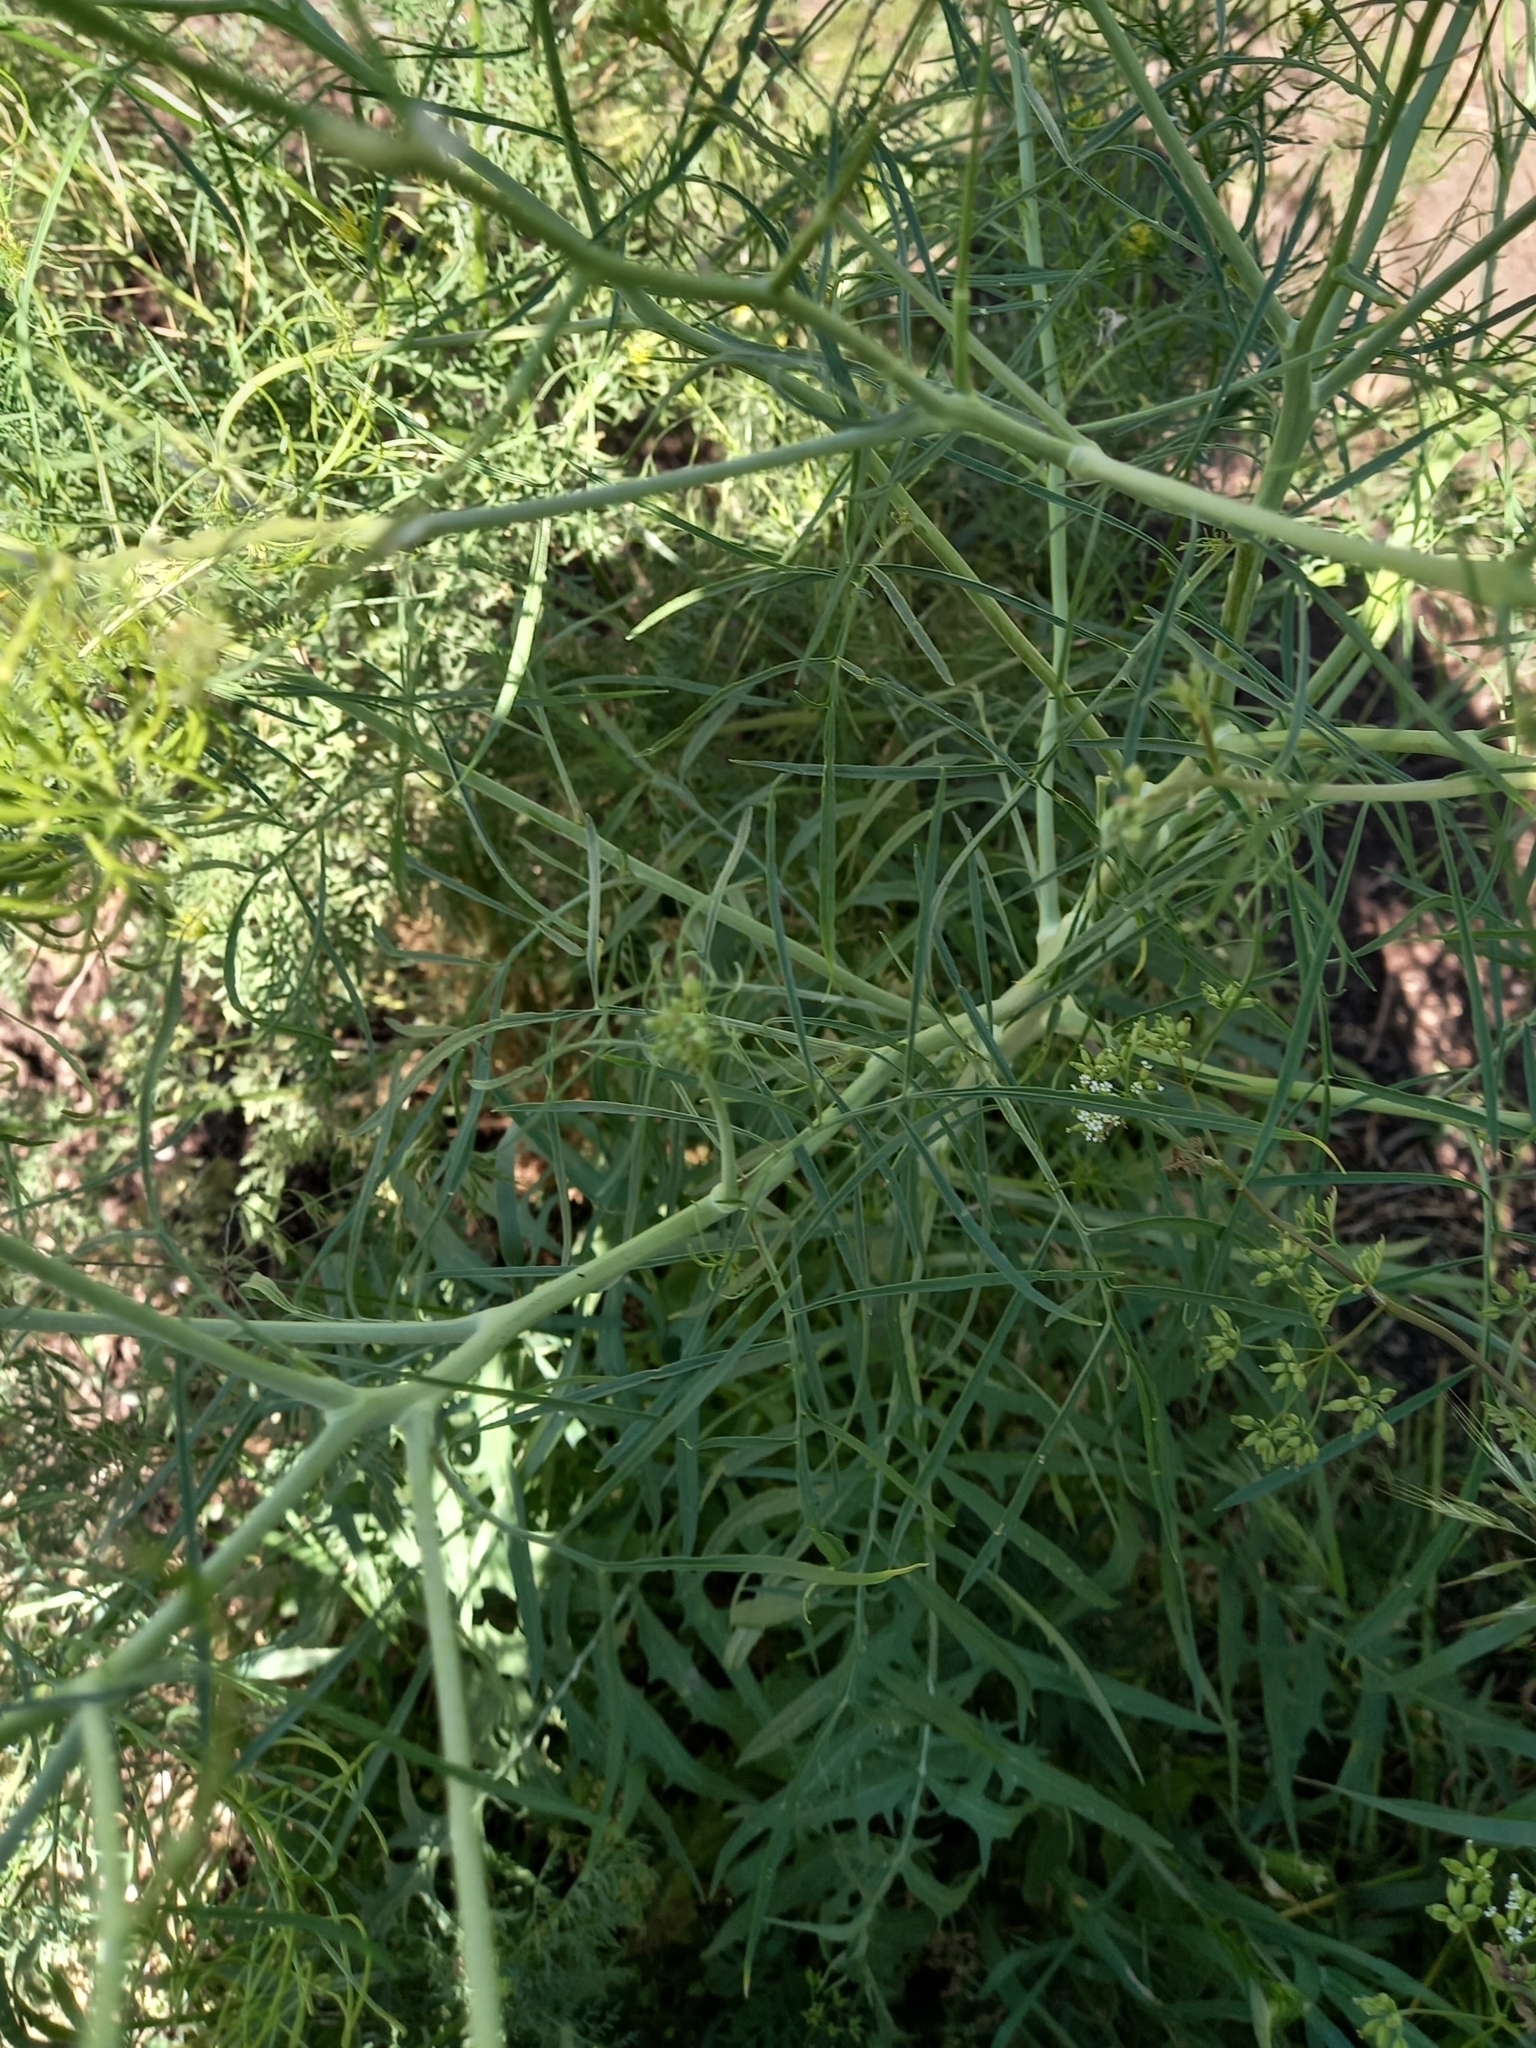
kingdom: Plantae
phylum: Tracheophyta
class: Magnoliopsida
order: Brassicales
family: Brassicaceae
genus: Sisymbrium
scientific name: Sisymbrium altissimum
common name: Tall rocket
